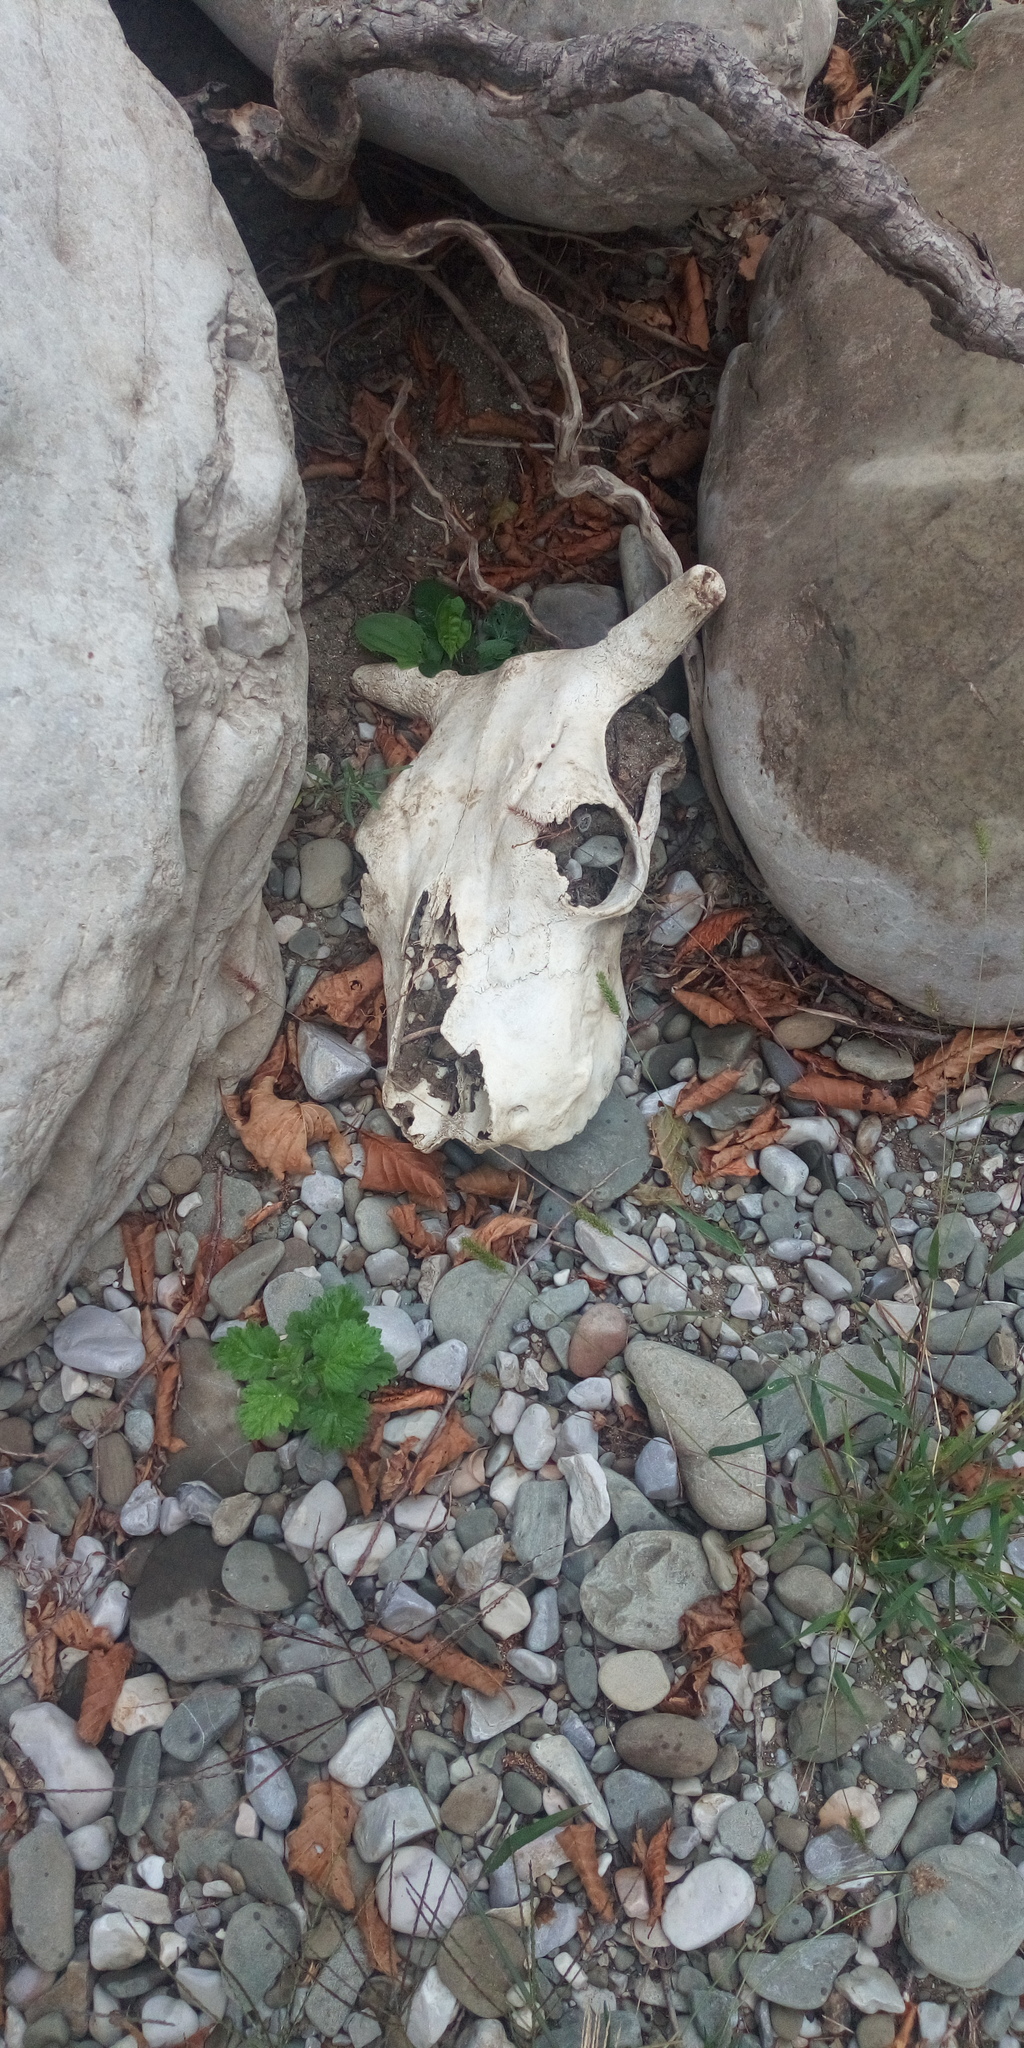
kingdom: Animalia
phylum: Chordata
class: Mammalia
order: Artiodactyla
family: Bovidae
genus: Bos
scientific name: Bos taurus
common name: Domesticated cattle
